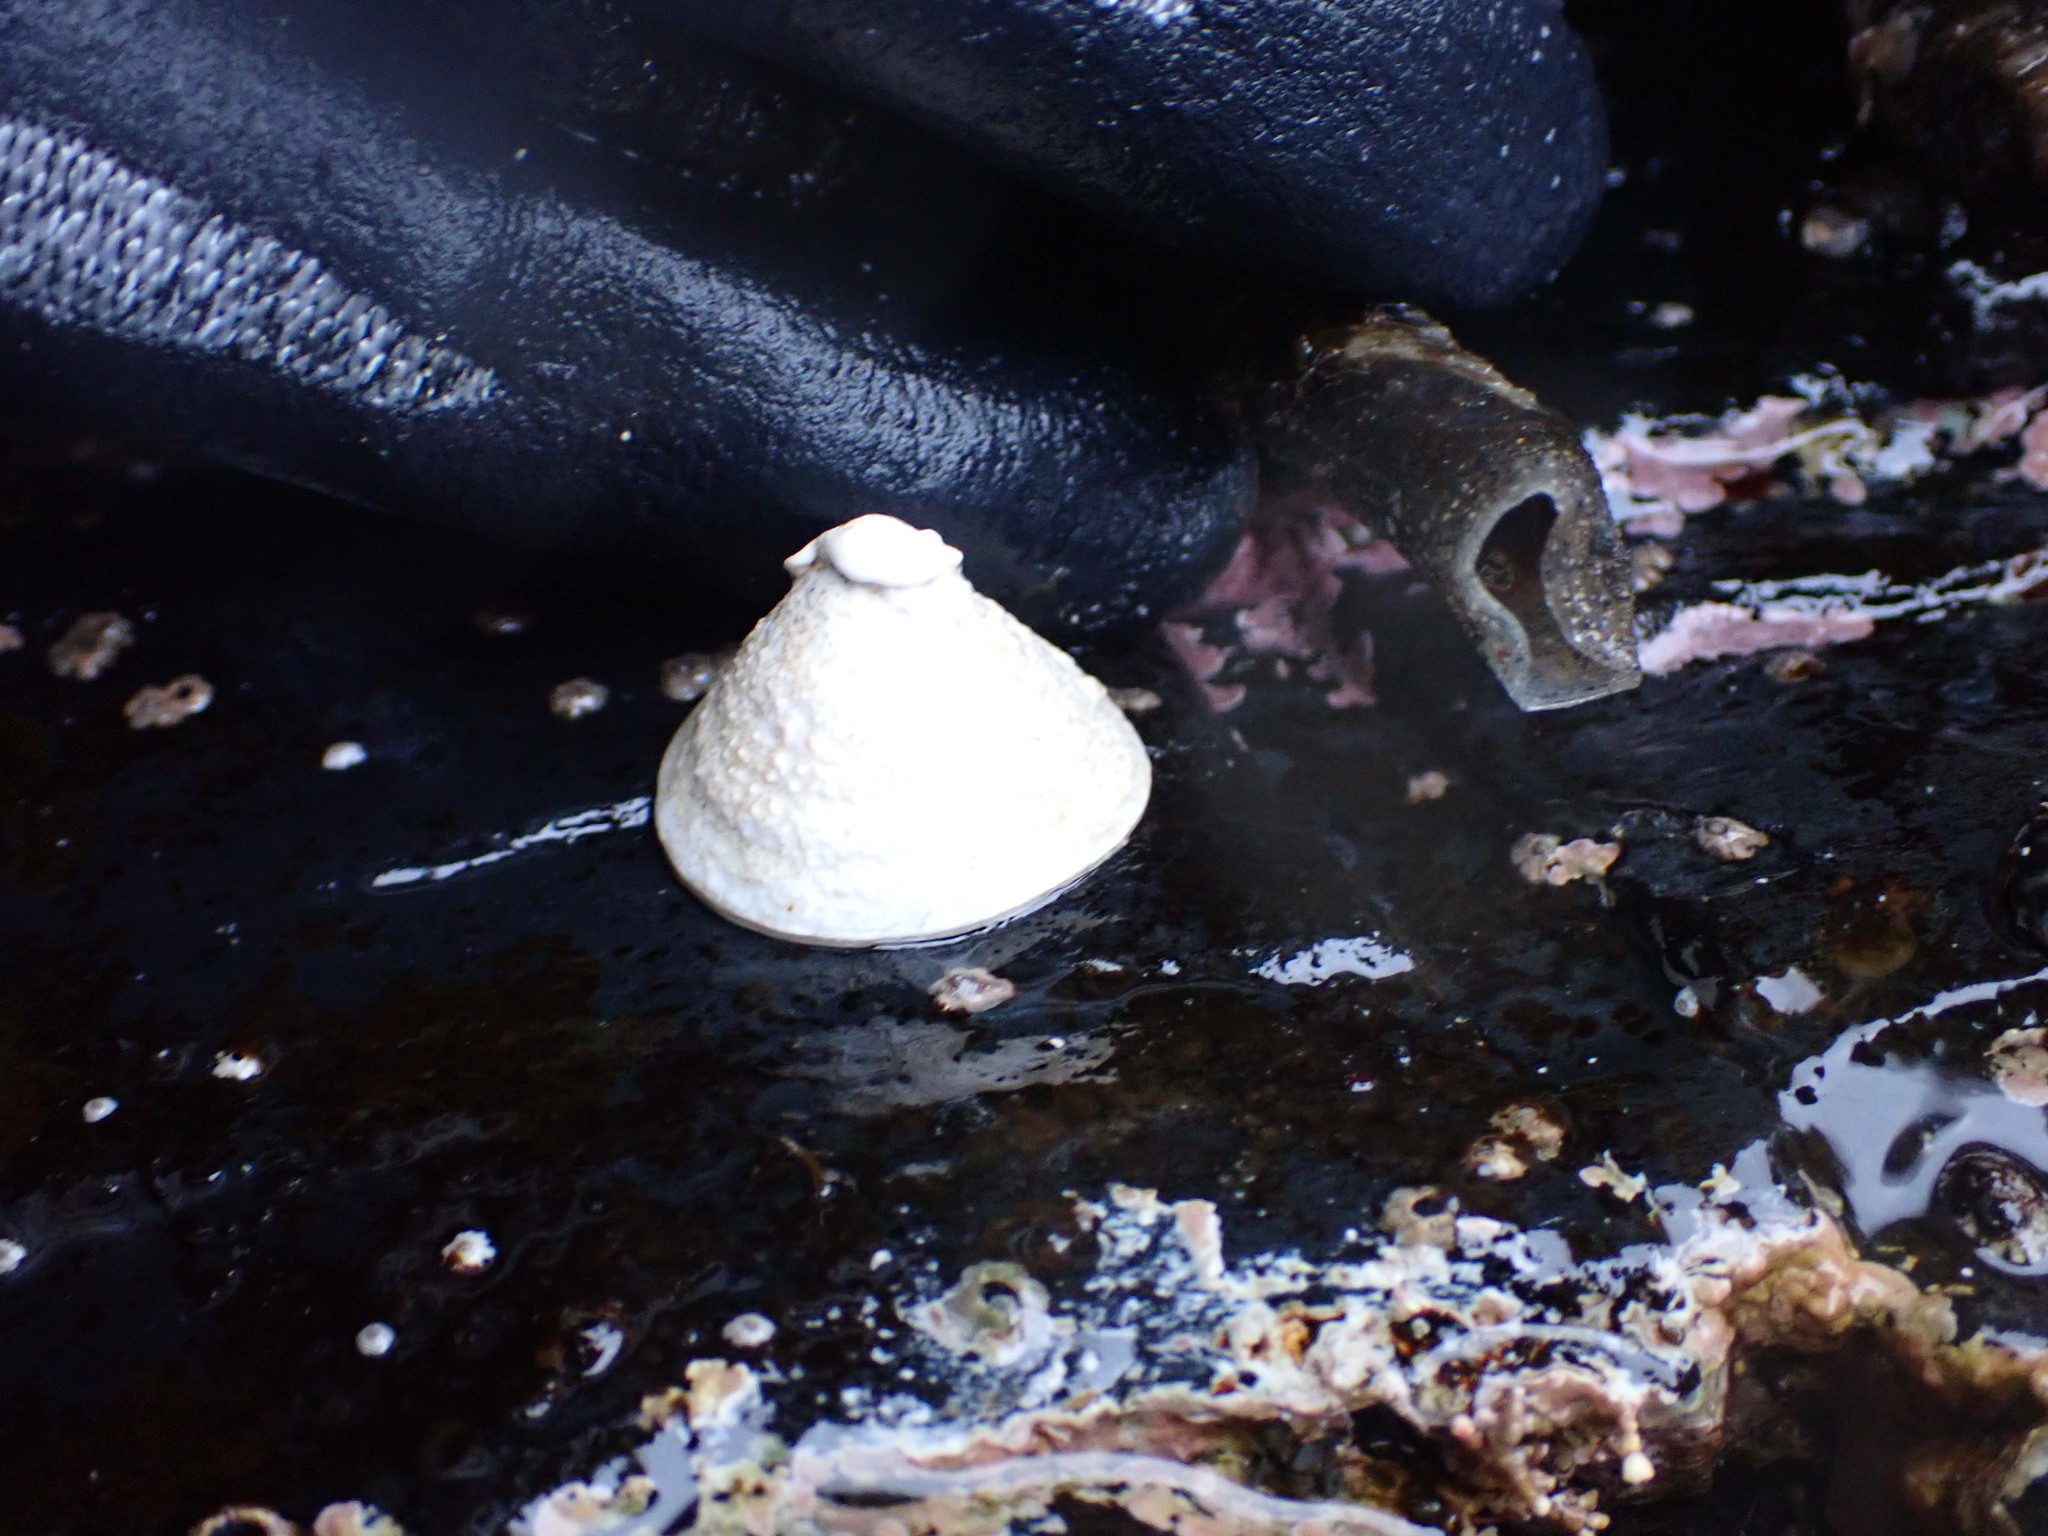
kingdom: Animalia
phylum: Mollusca
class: Gastropoda
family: Acmaeidae
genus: Acmaea
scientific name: Acmaea mitra
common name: Pacific white cap limpet
